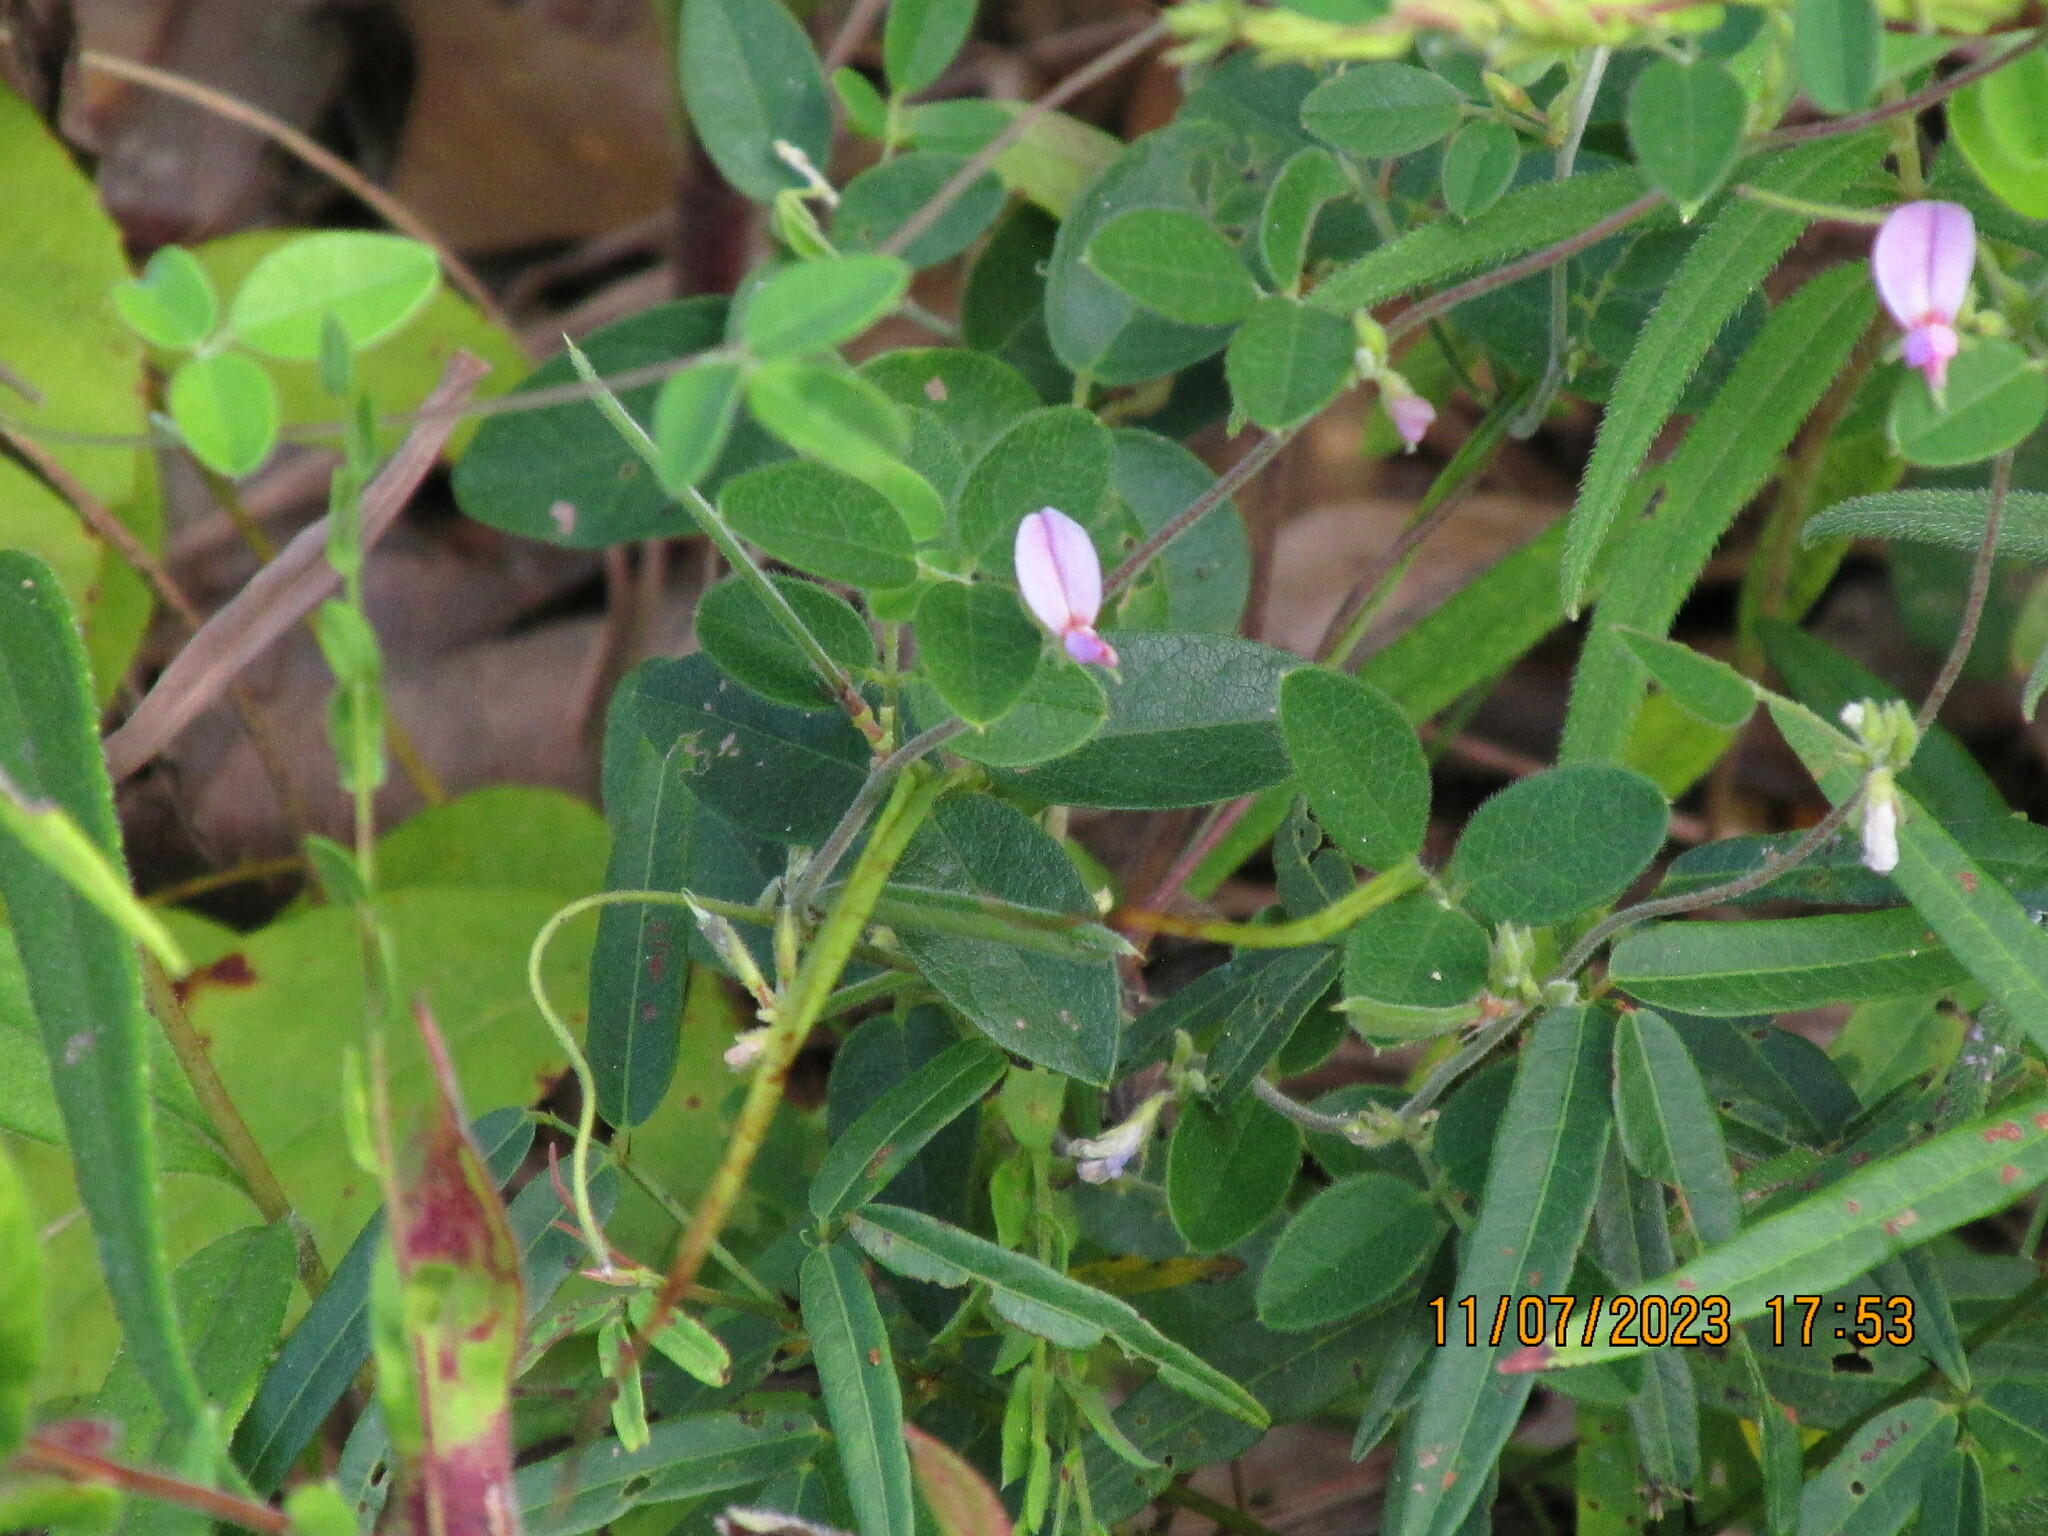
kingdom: Plantae
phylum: Tracheophyta
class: Magnoliopsida
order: Fabales
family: Fabaceae
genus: Galactia
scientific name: Galactia regularis
